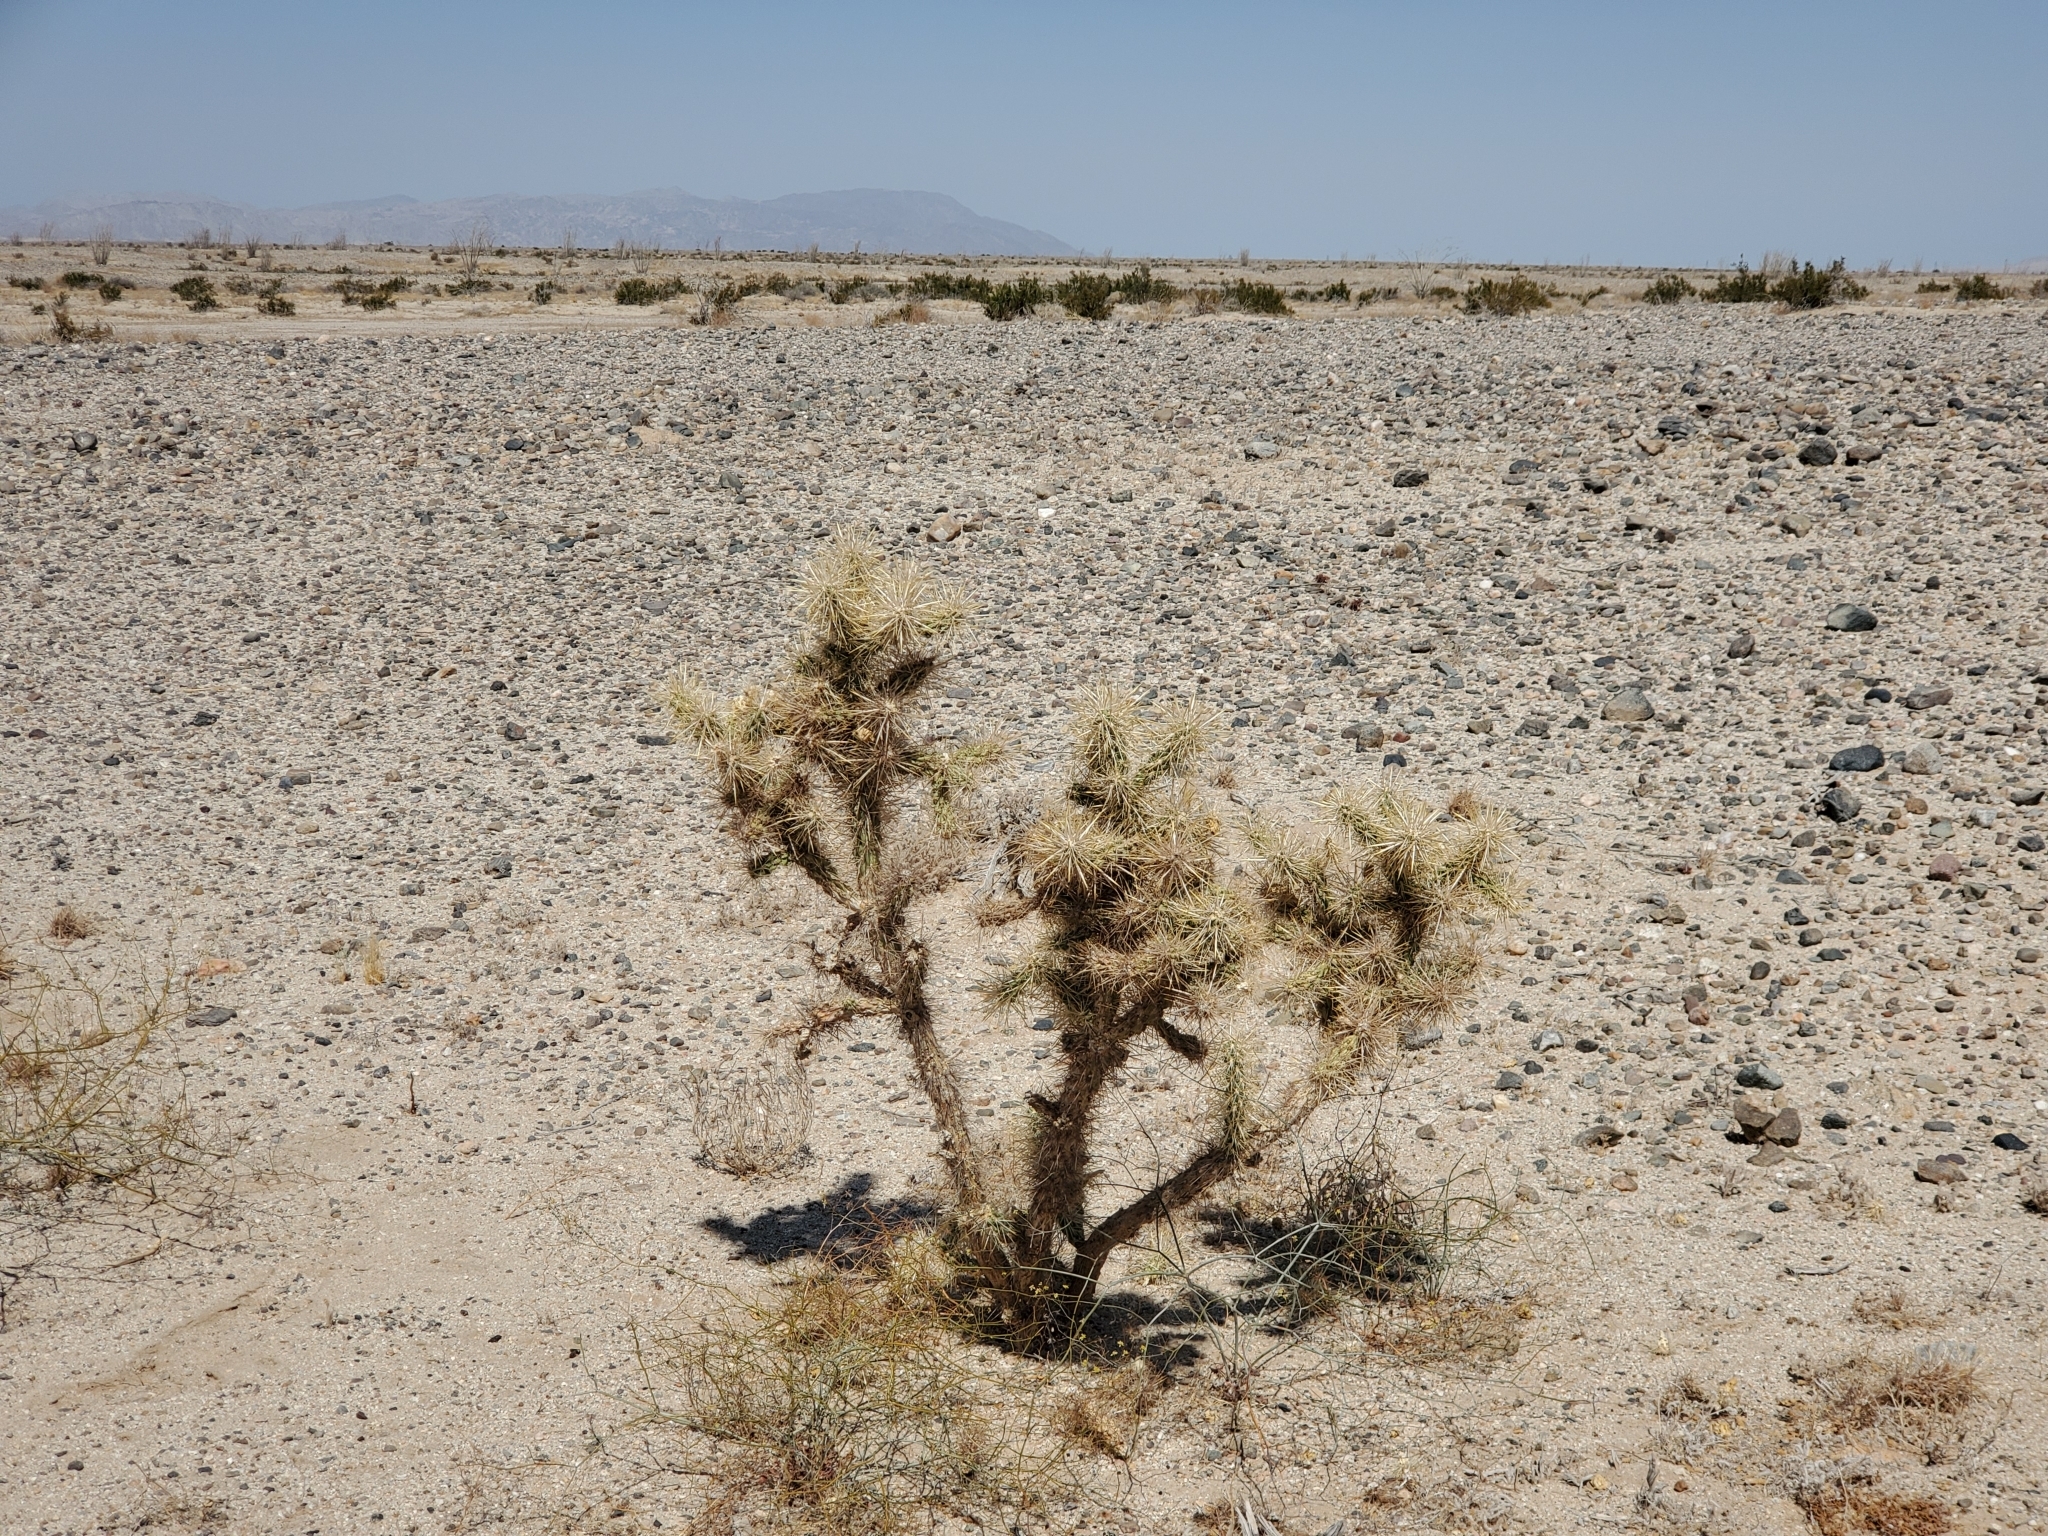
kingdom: Plantae
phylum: Tracheophyta
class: Magnoliopsida
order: Caryophyllales
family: Cactaceae
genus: Cylindropuntia
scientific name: Cylindropuntia echinocarpa
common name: Ground cholla
